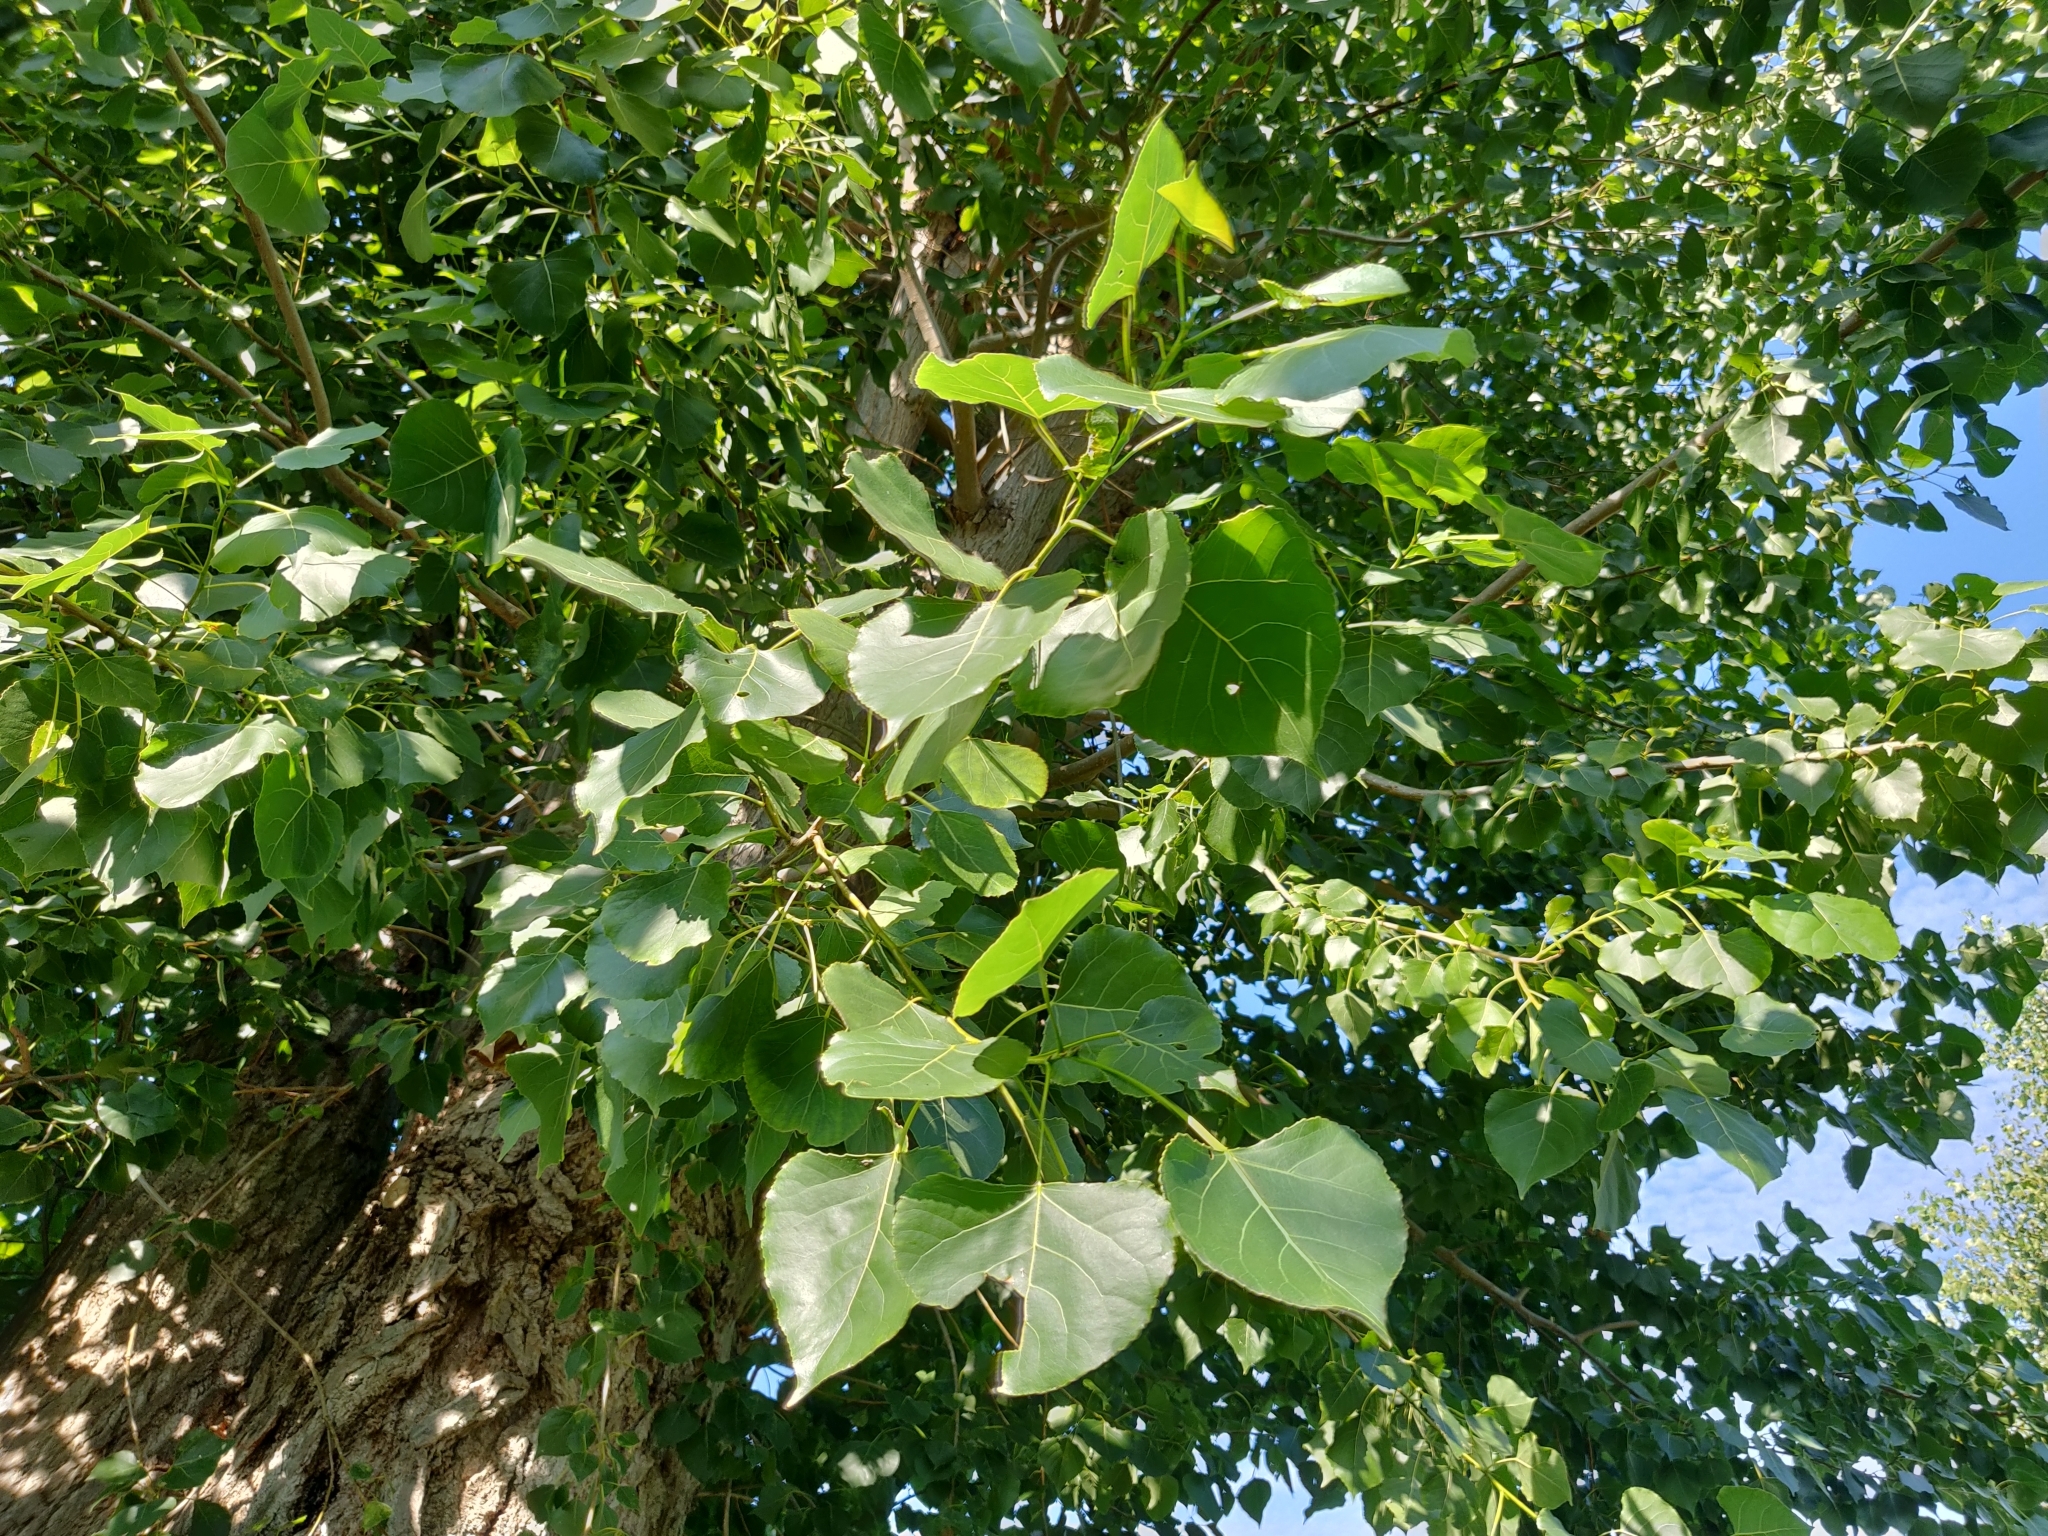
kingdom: Plantae
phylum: Tracheophyta
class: Magnoliopsida
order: Malpighiales
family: Salicaceae
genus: Populus
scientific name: Populus nigra
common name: Black poplar
